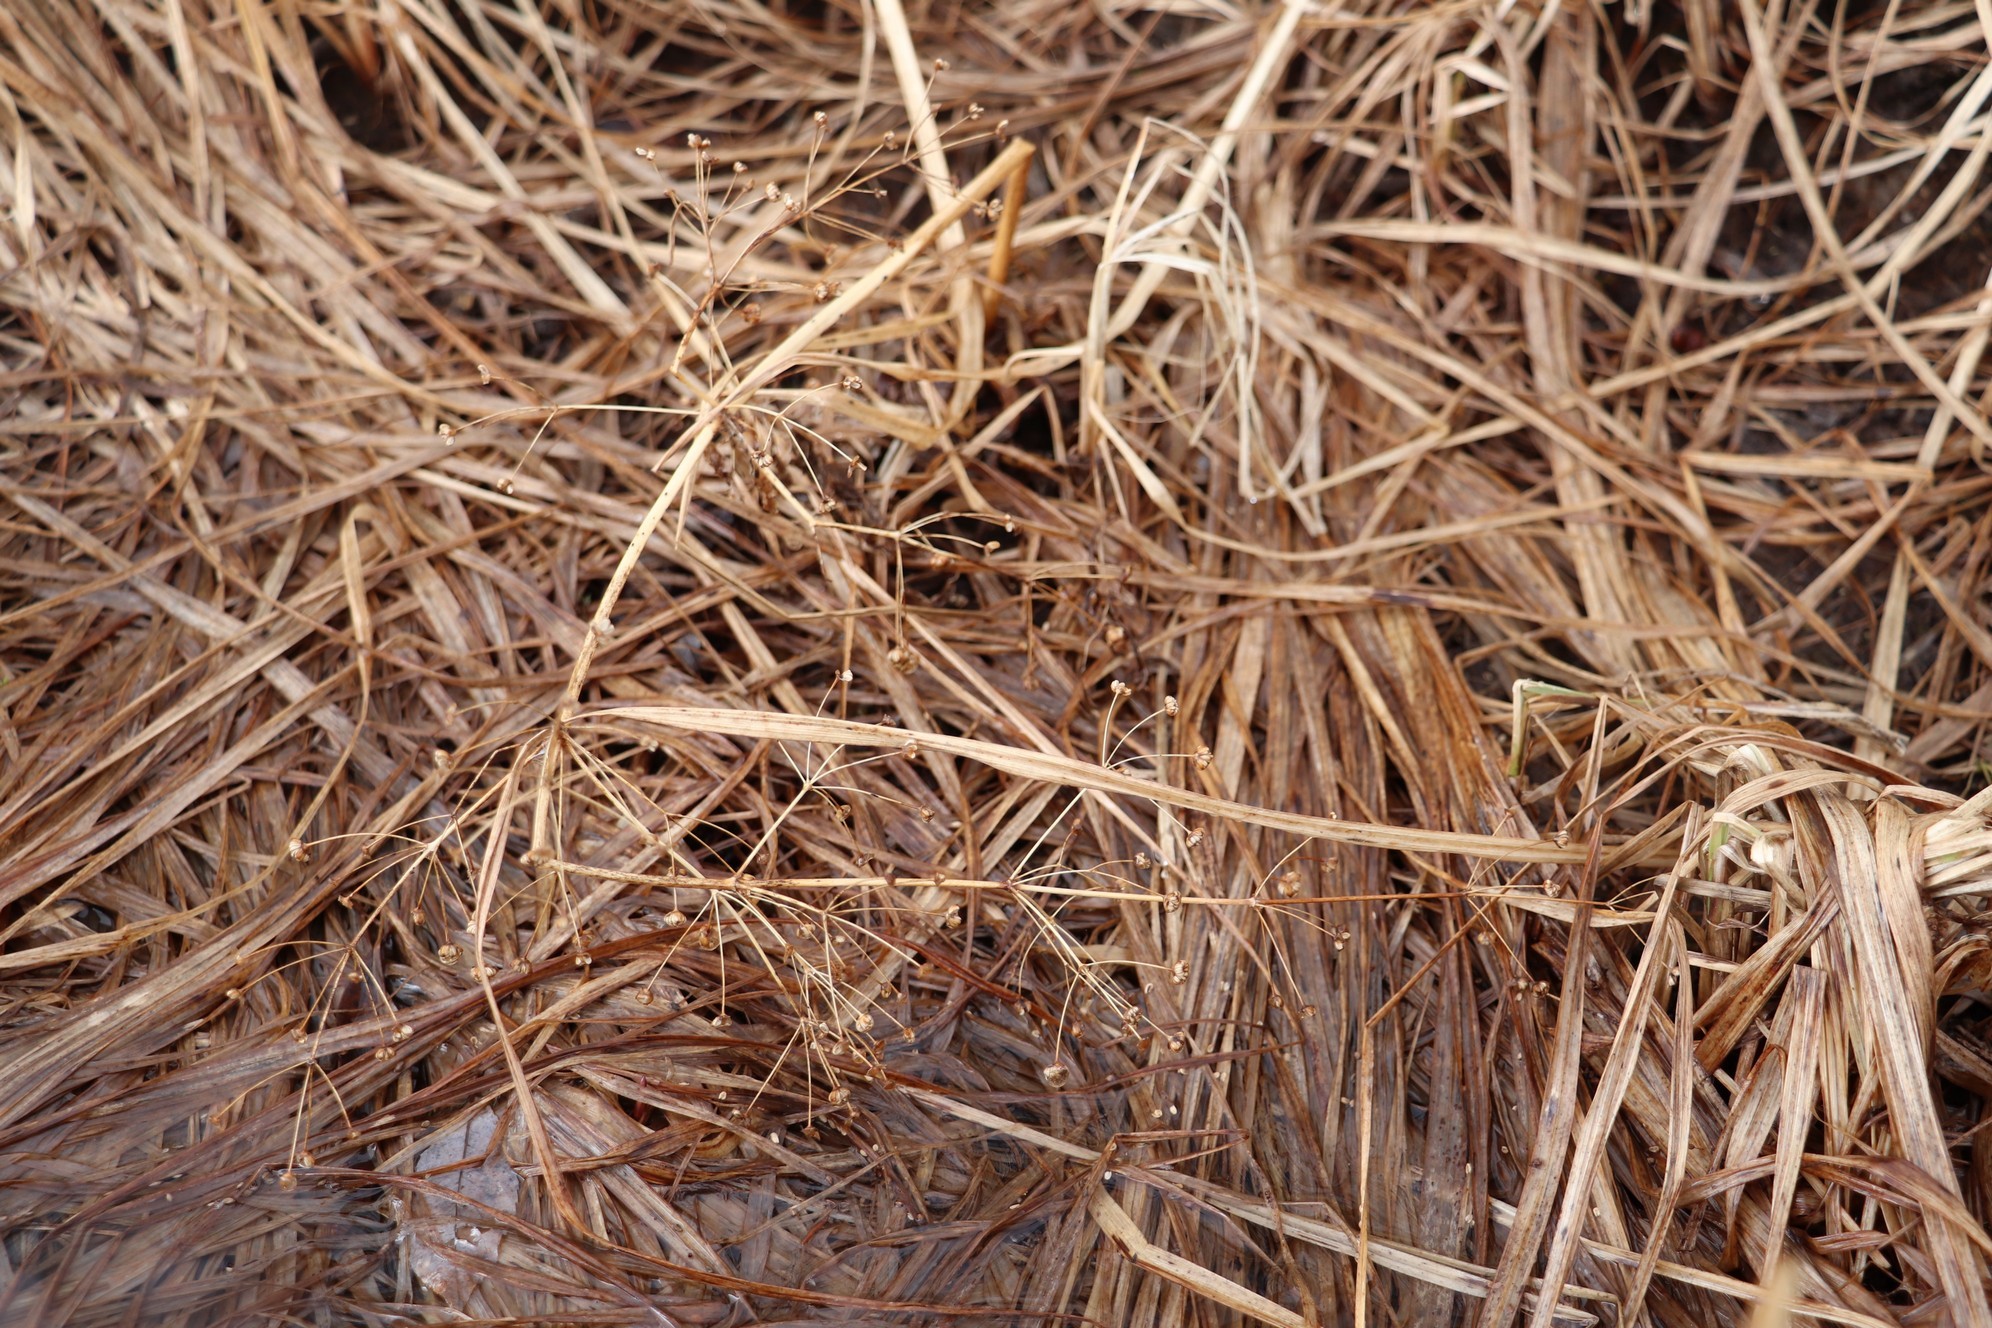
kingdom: Plantae
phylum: Tracheophyta
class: Liliopsida
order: Alismatales
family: Alismataceae
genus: Alisma
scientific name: Alisma plantago-aquatica
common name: Water-plantain
